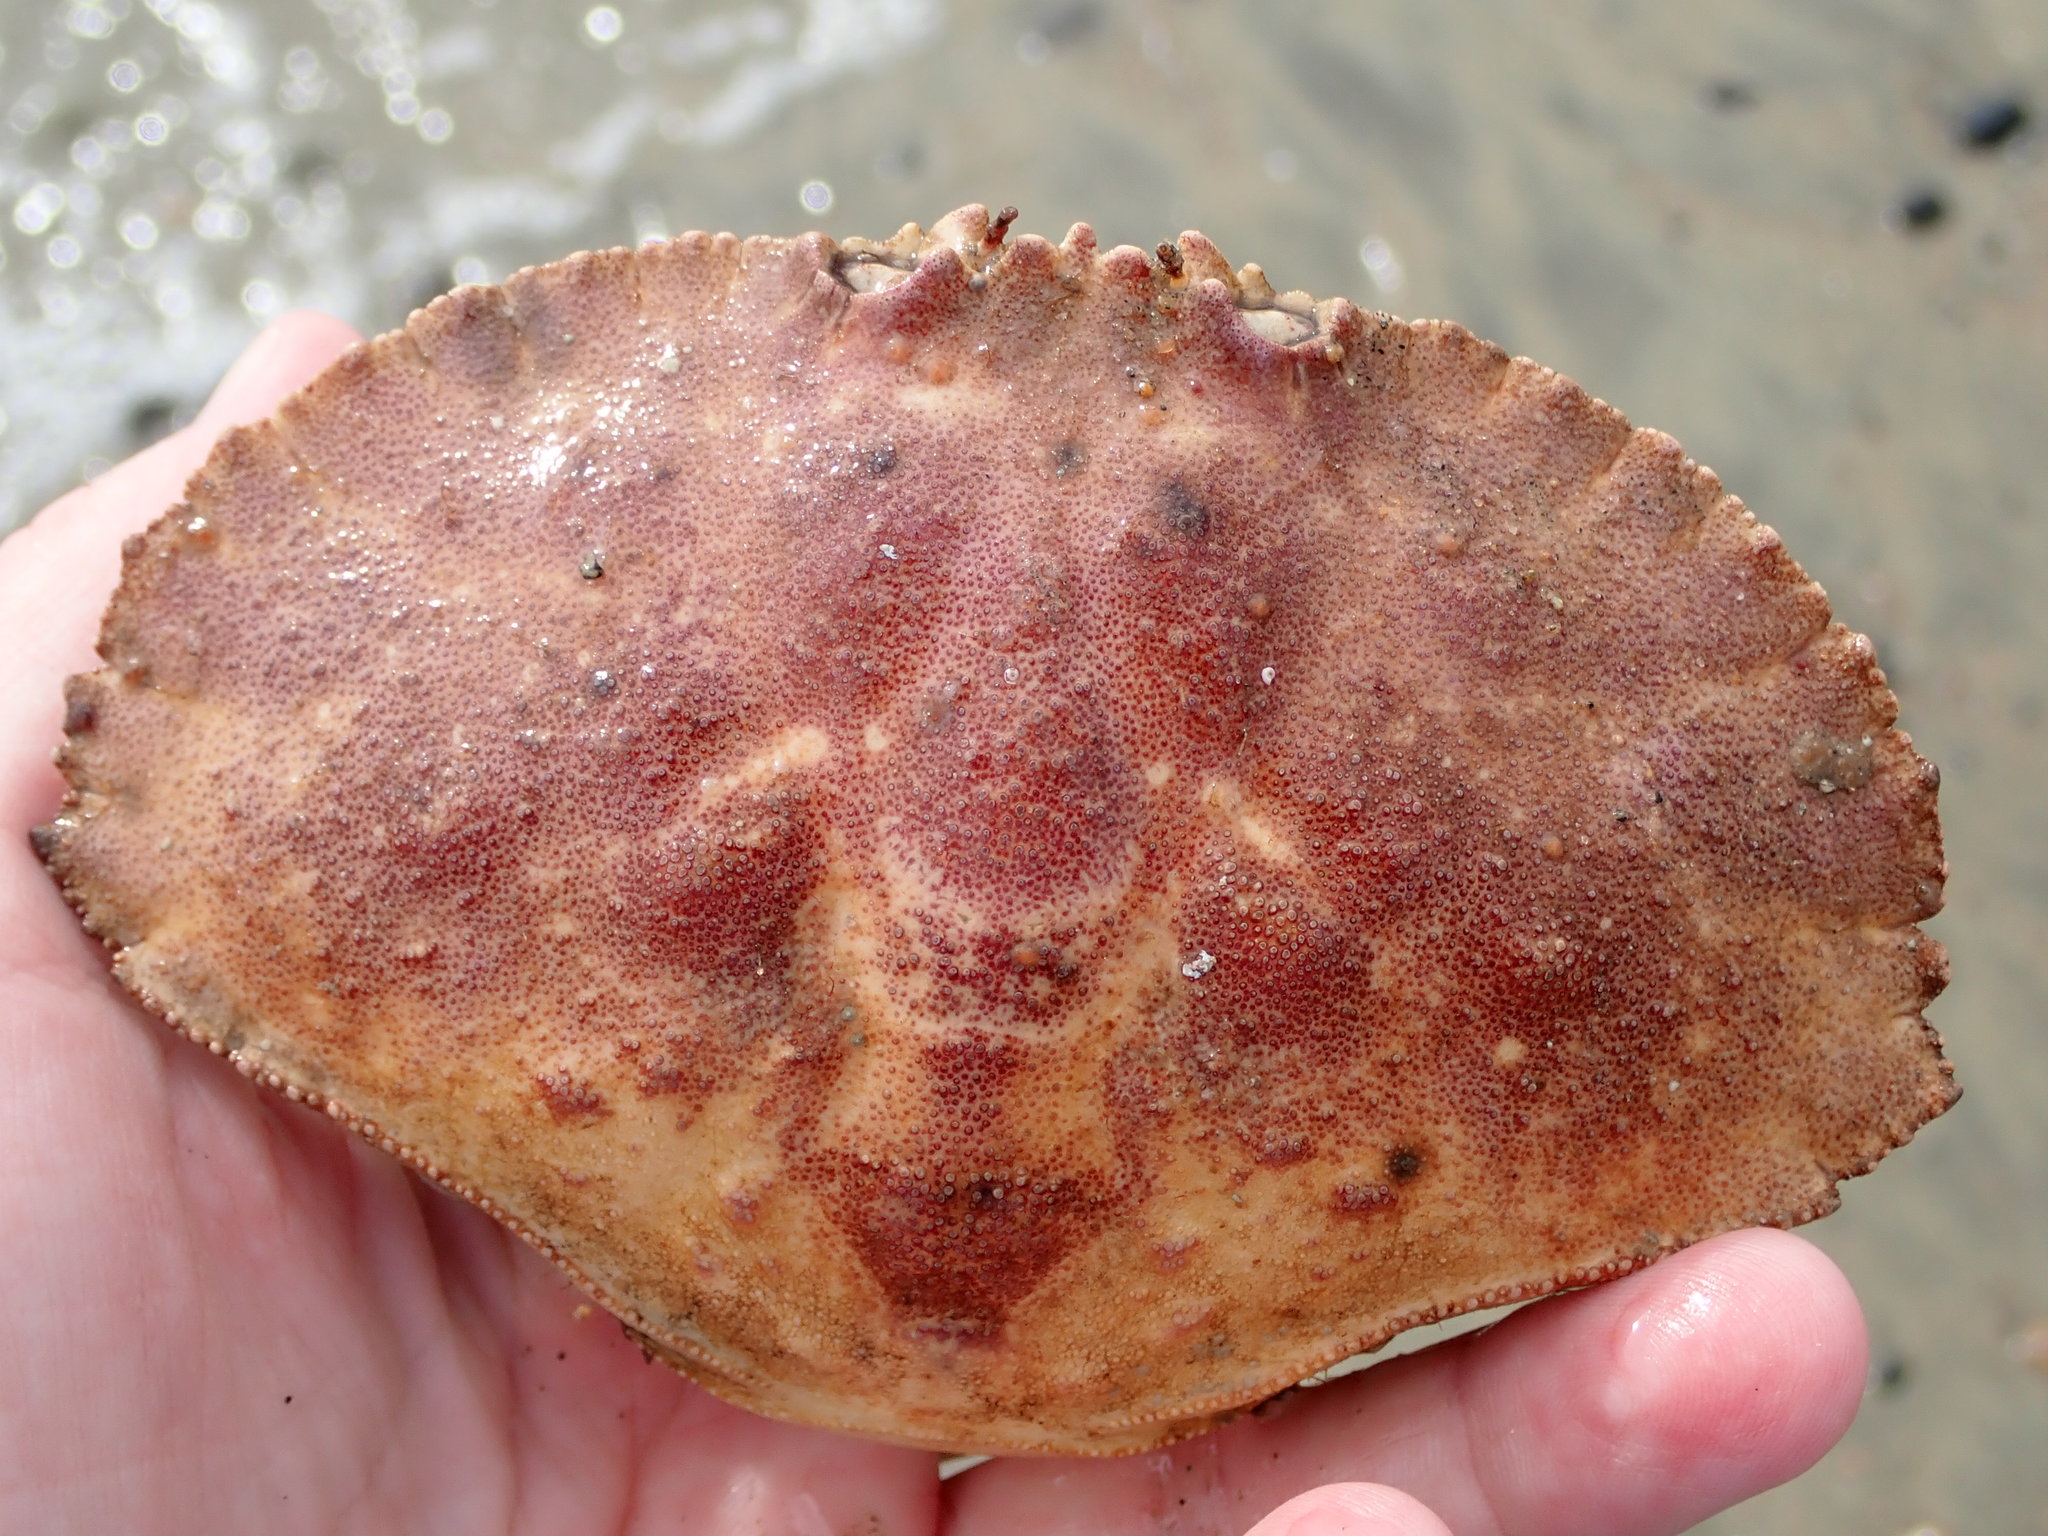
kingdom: Animalia
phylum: Arthropoda
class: Malacostraca
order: Decapoda
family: Cancridae
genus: Cancer
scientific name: Cancer borealis
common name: Jonah crab
